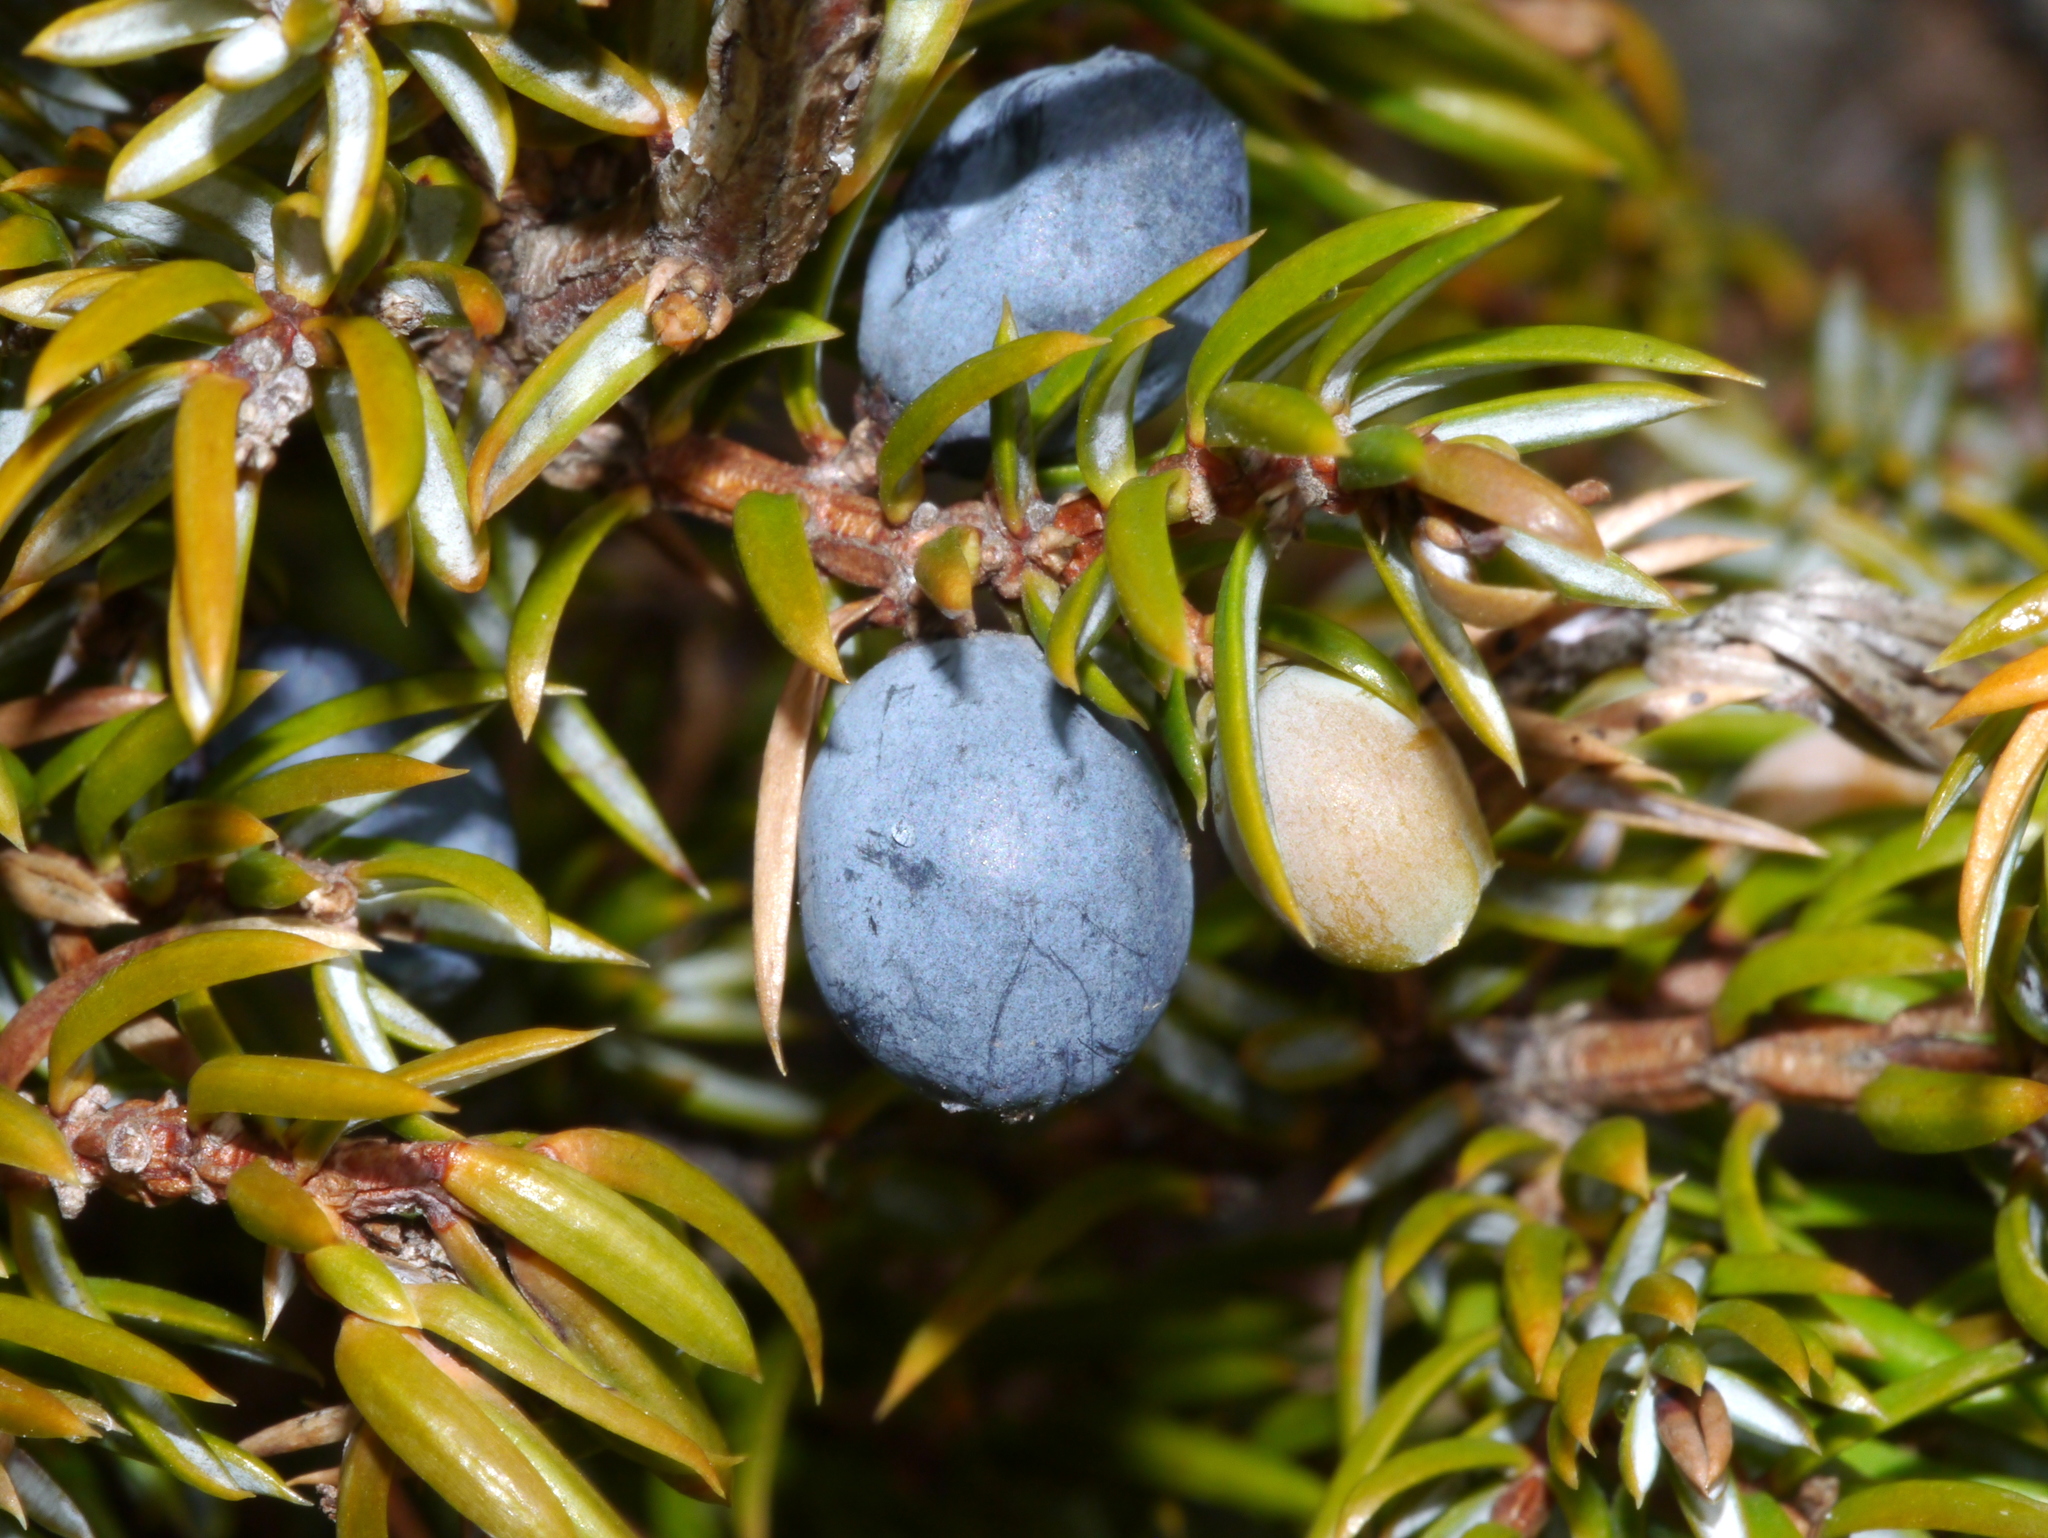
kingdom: Plantae
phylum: Tracheophyta
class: Pinopsida
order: Pinales
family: Cupressaceae
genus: Juniperus
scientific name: Juniperus communis
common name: Common juniper
